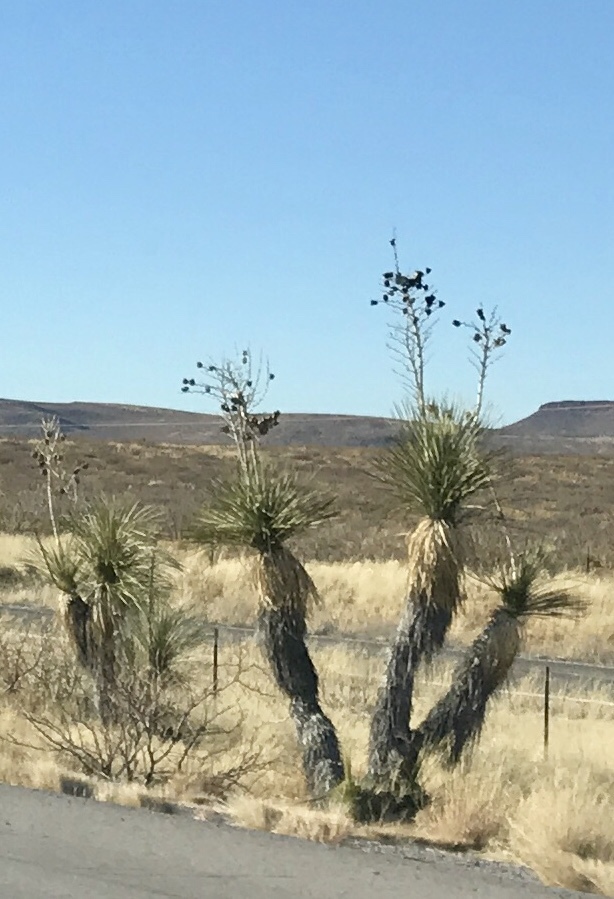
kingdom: Plantae
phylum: Tracheophyta
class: Liliopsida
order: Asparagales
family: Asparagaceae
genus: Yucca
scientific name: Yucca elata
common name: Palmella
